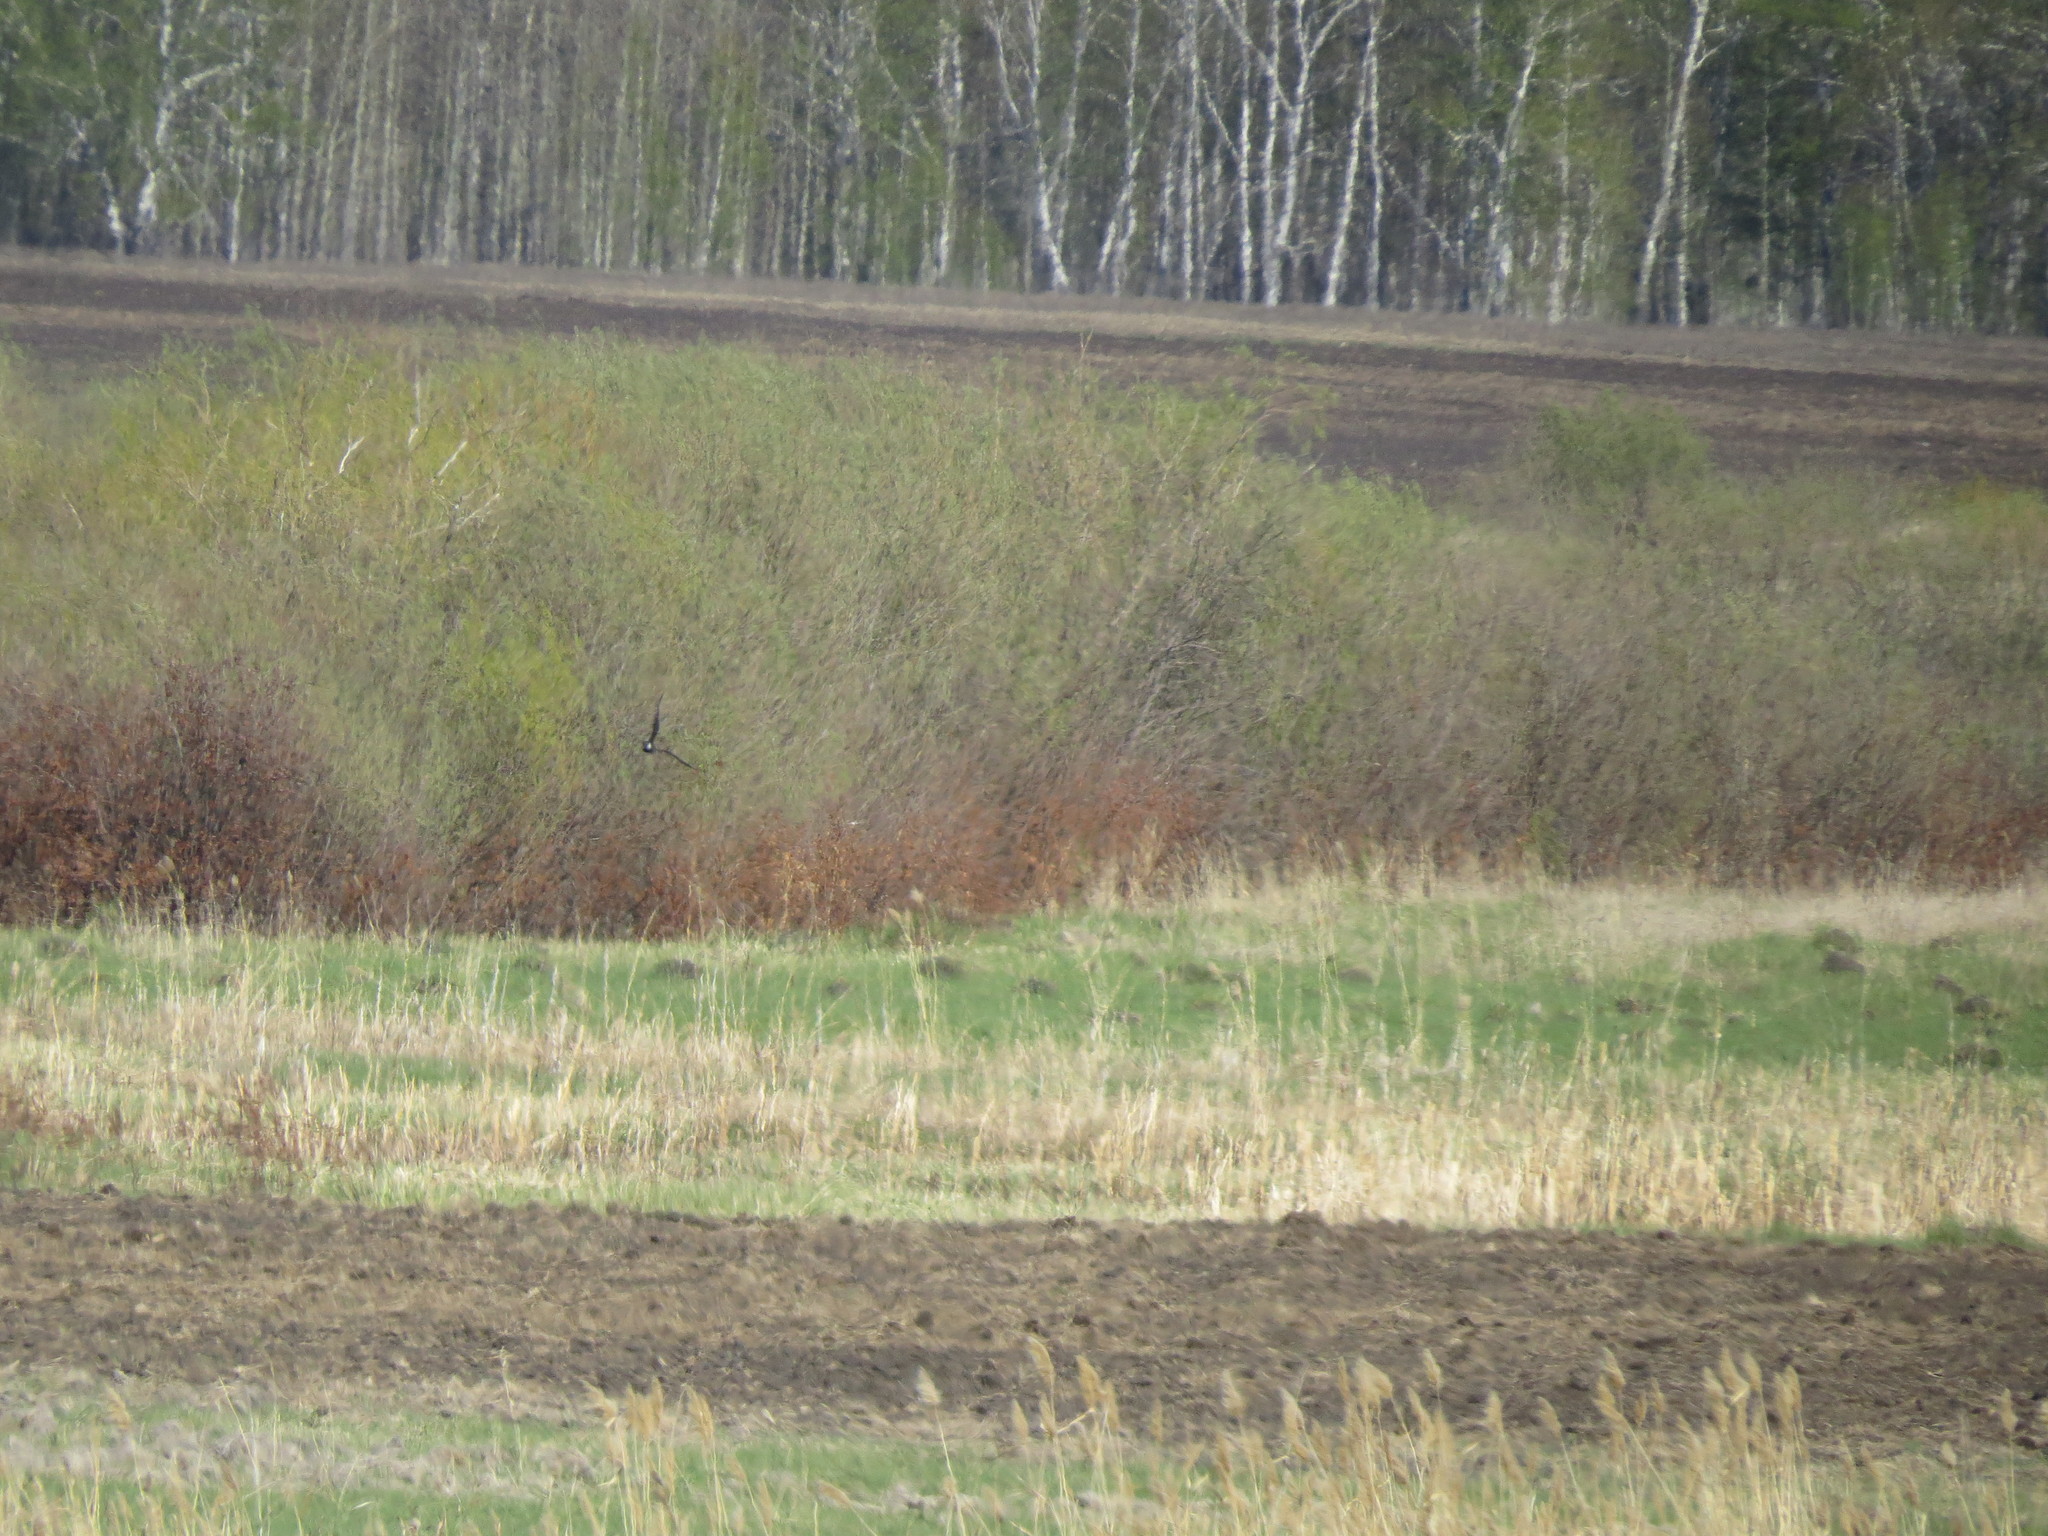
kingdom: Animalia
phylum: Chordata
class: Aves
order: Charadriiformes
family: Charadriidae
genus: Vanellus
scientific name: Vanellus vanellus
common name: Northern lapwing
